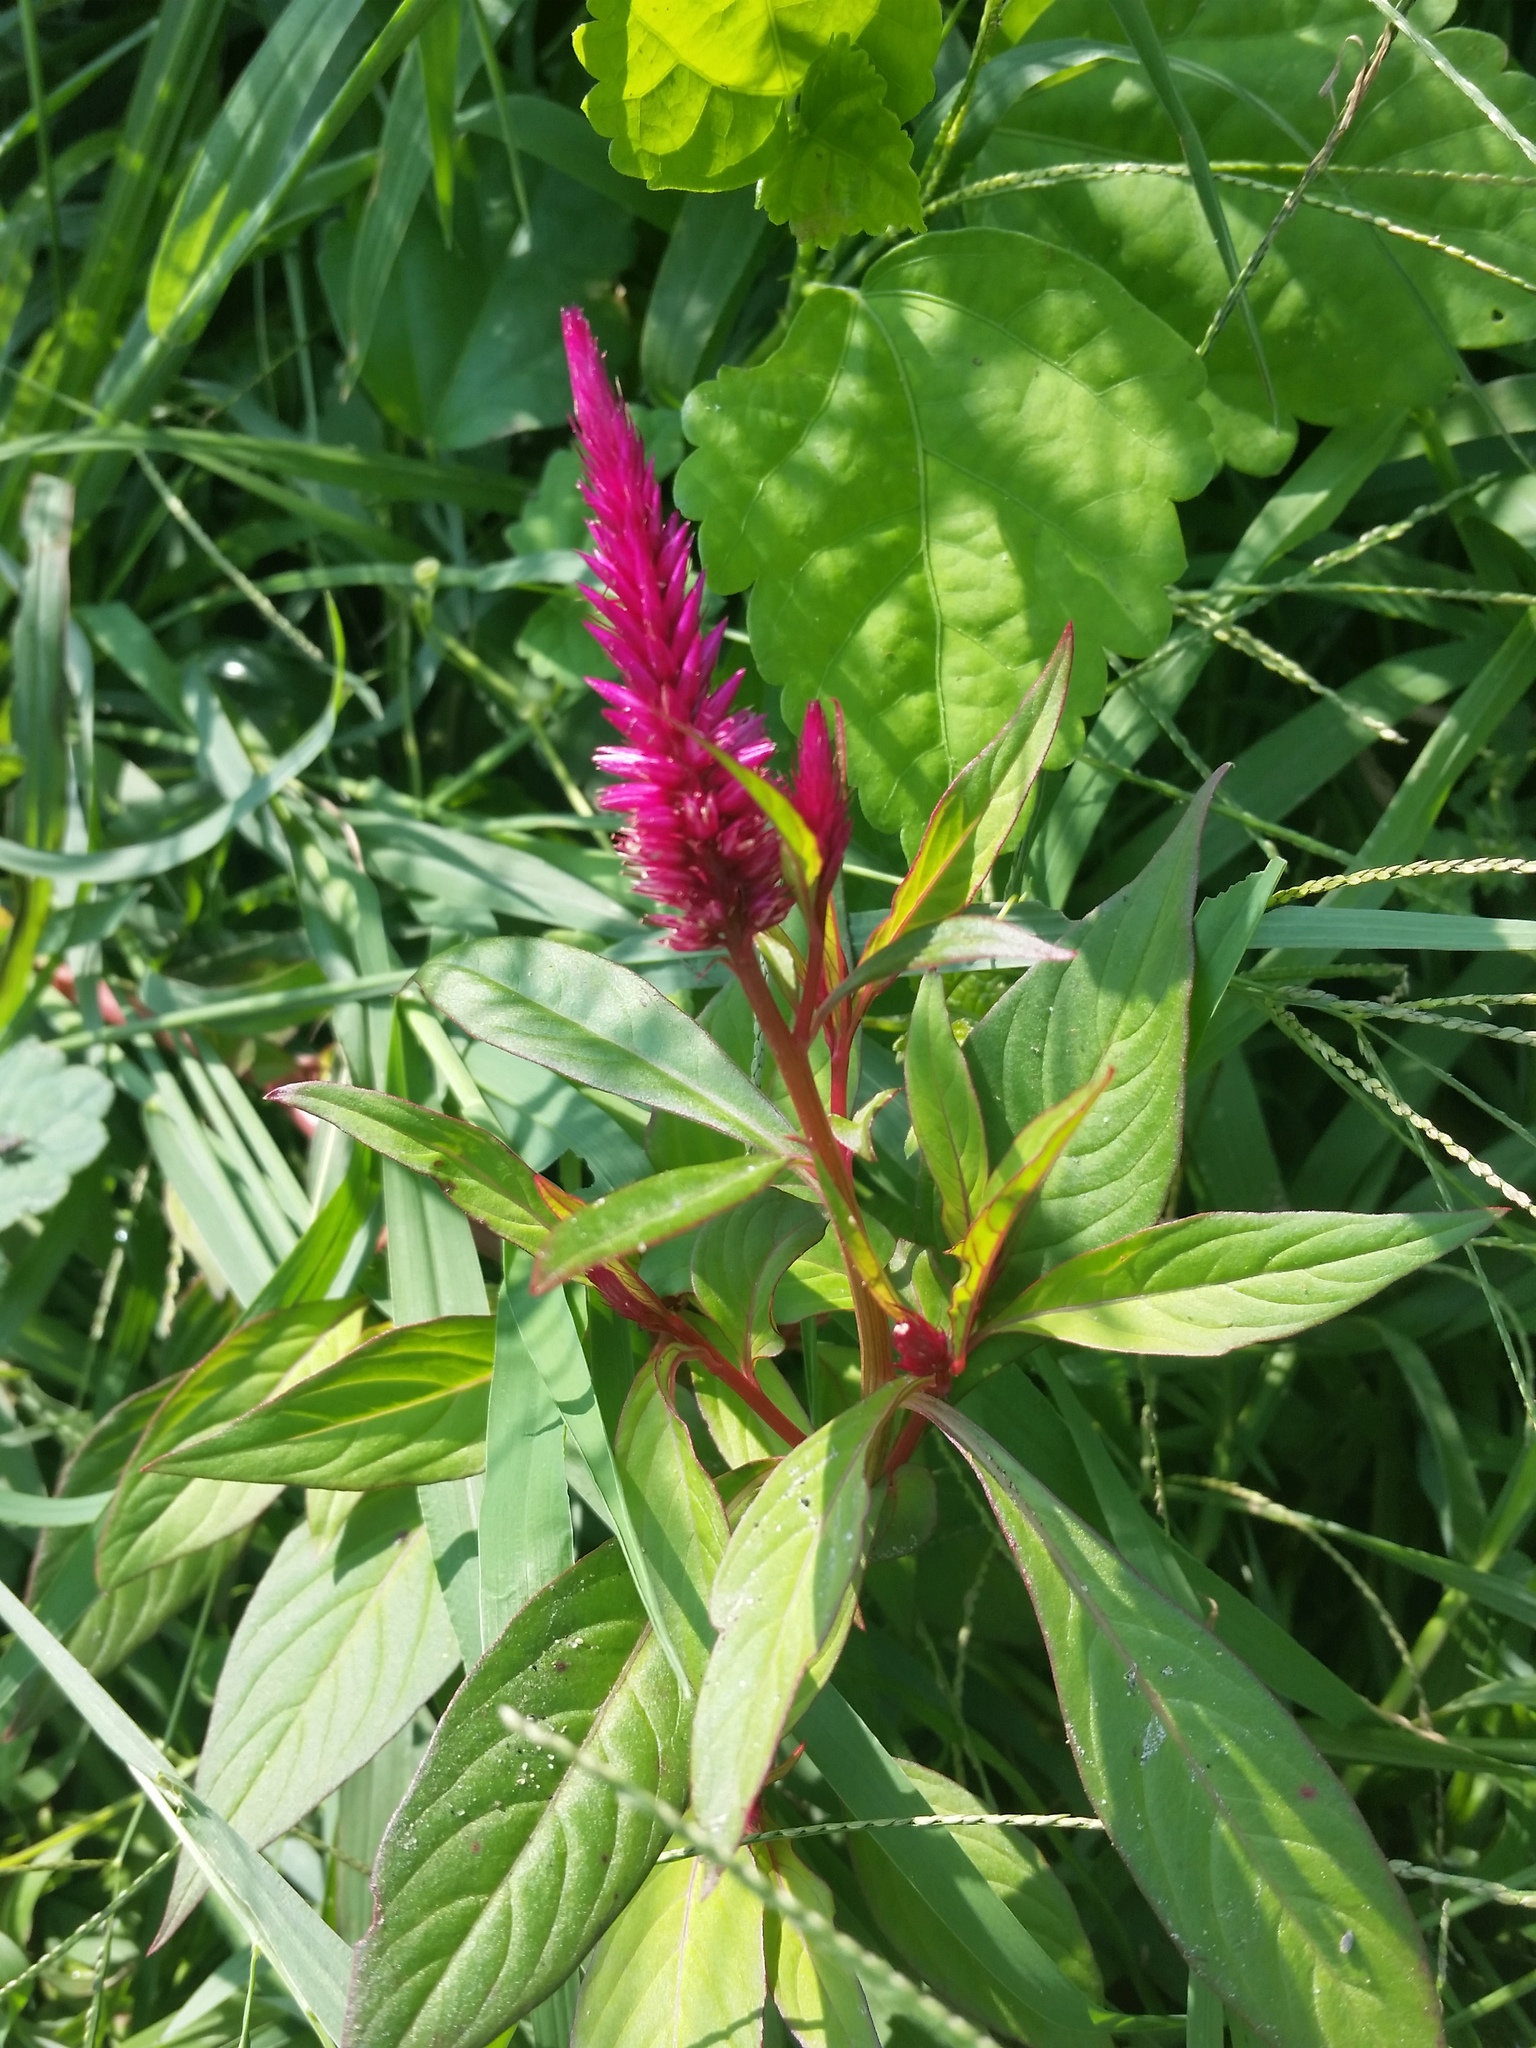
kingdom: Plantae
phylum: Tracheophyta
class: Magnoliopsida
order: Caryophyllales
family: Amaranthaceae
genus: Celosia
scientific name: Celosia spicata
